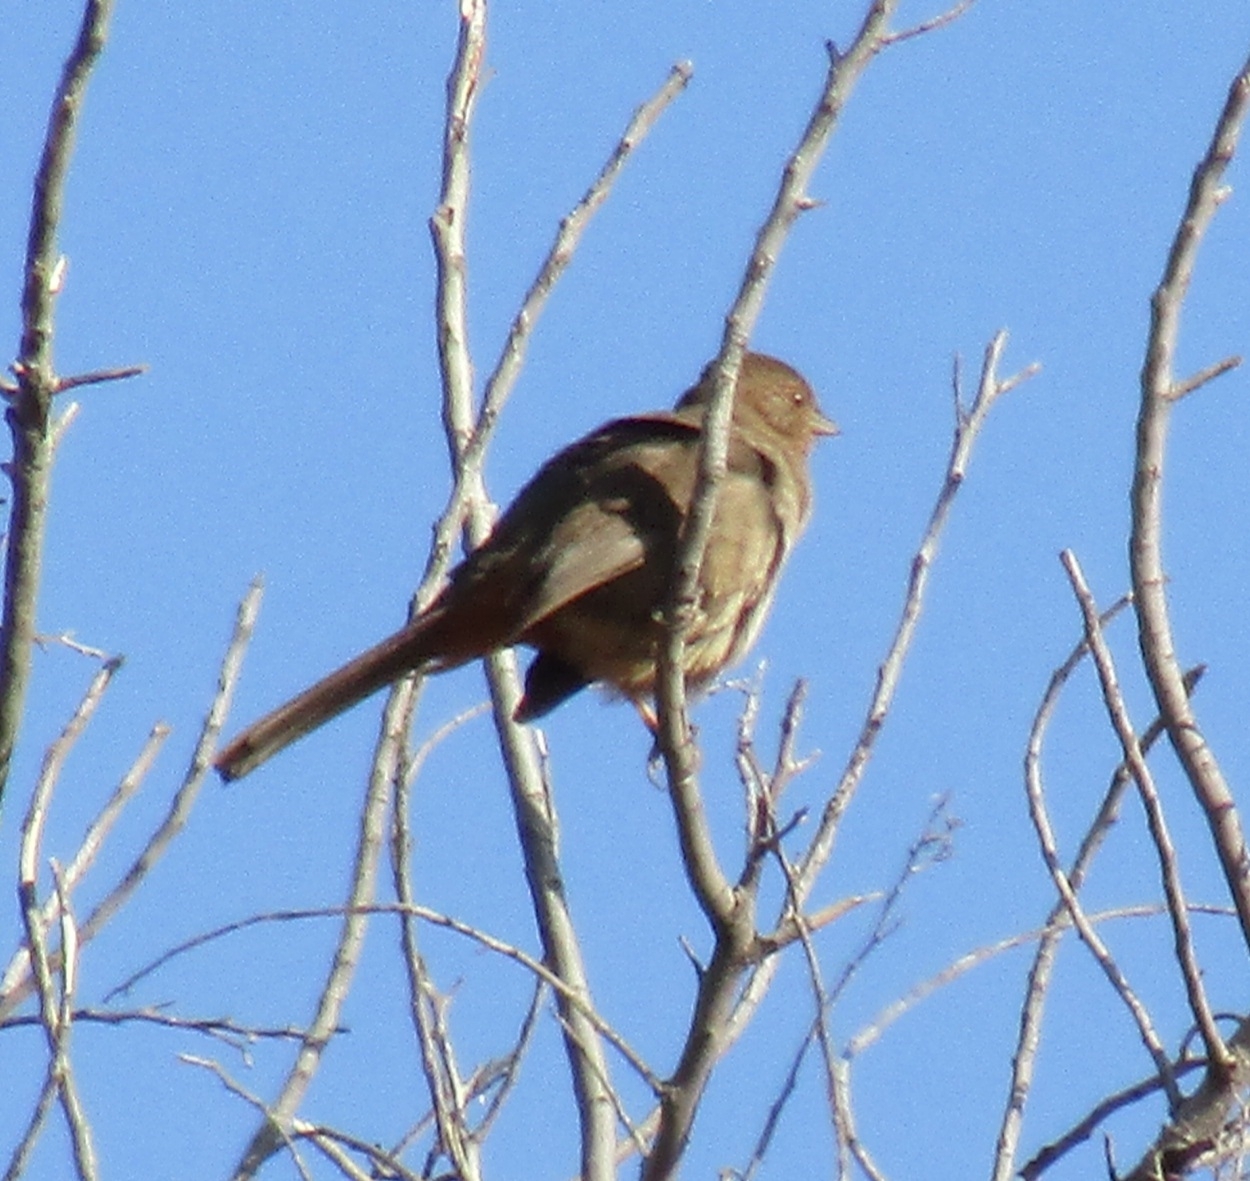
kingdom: Animalia
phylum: Chordata
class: Aves
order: Passeriformes
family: Passerellidae
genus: Melozone
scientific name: Melozone crissalis
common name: California towhee
